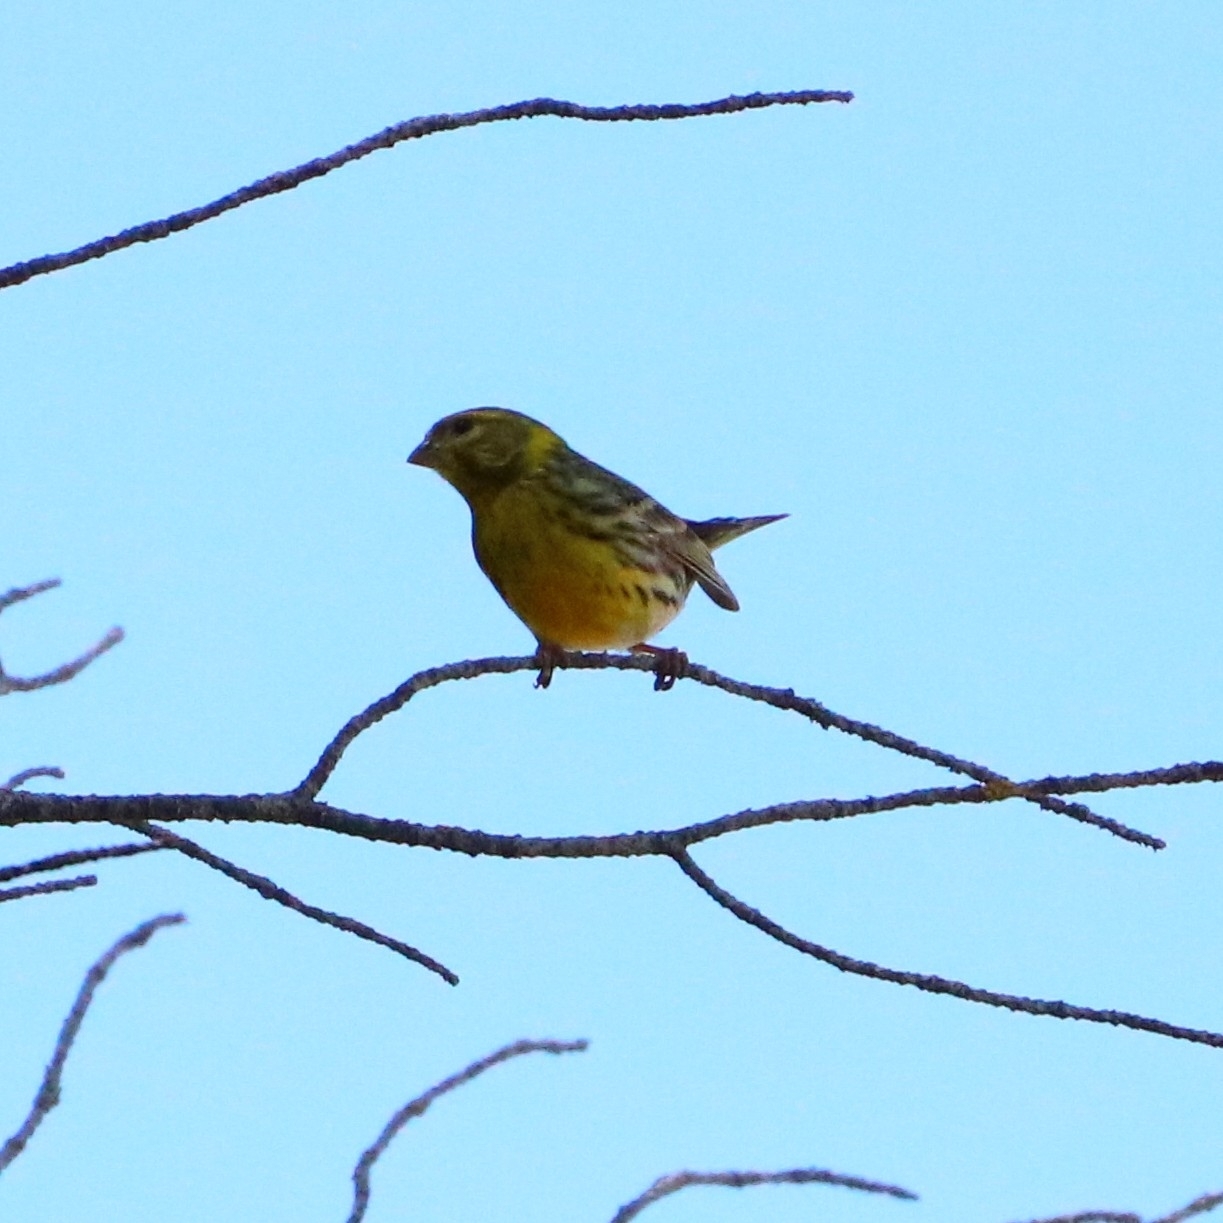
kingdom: Animalia
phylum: Chordata
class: Aves
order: Passeriformes
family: Fringillidae
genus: Serinus
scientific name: Serinus serinus
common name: European serin
